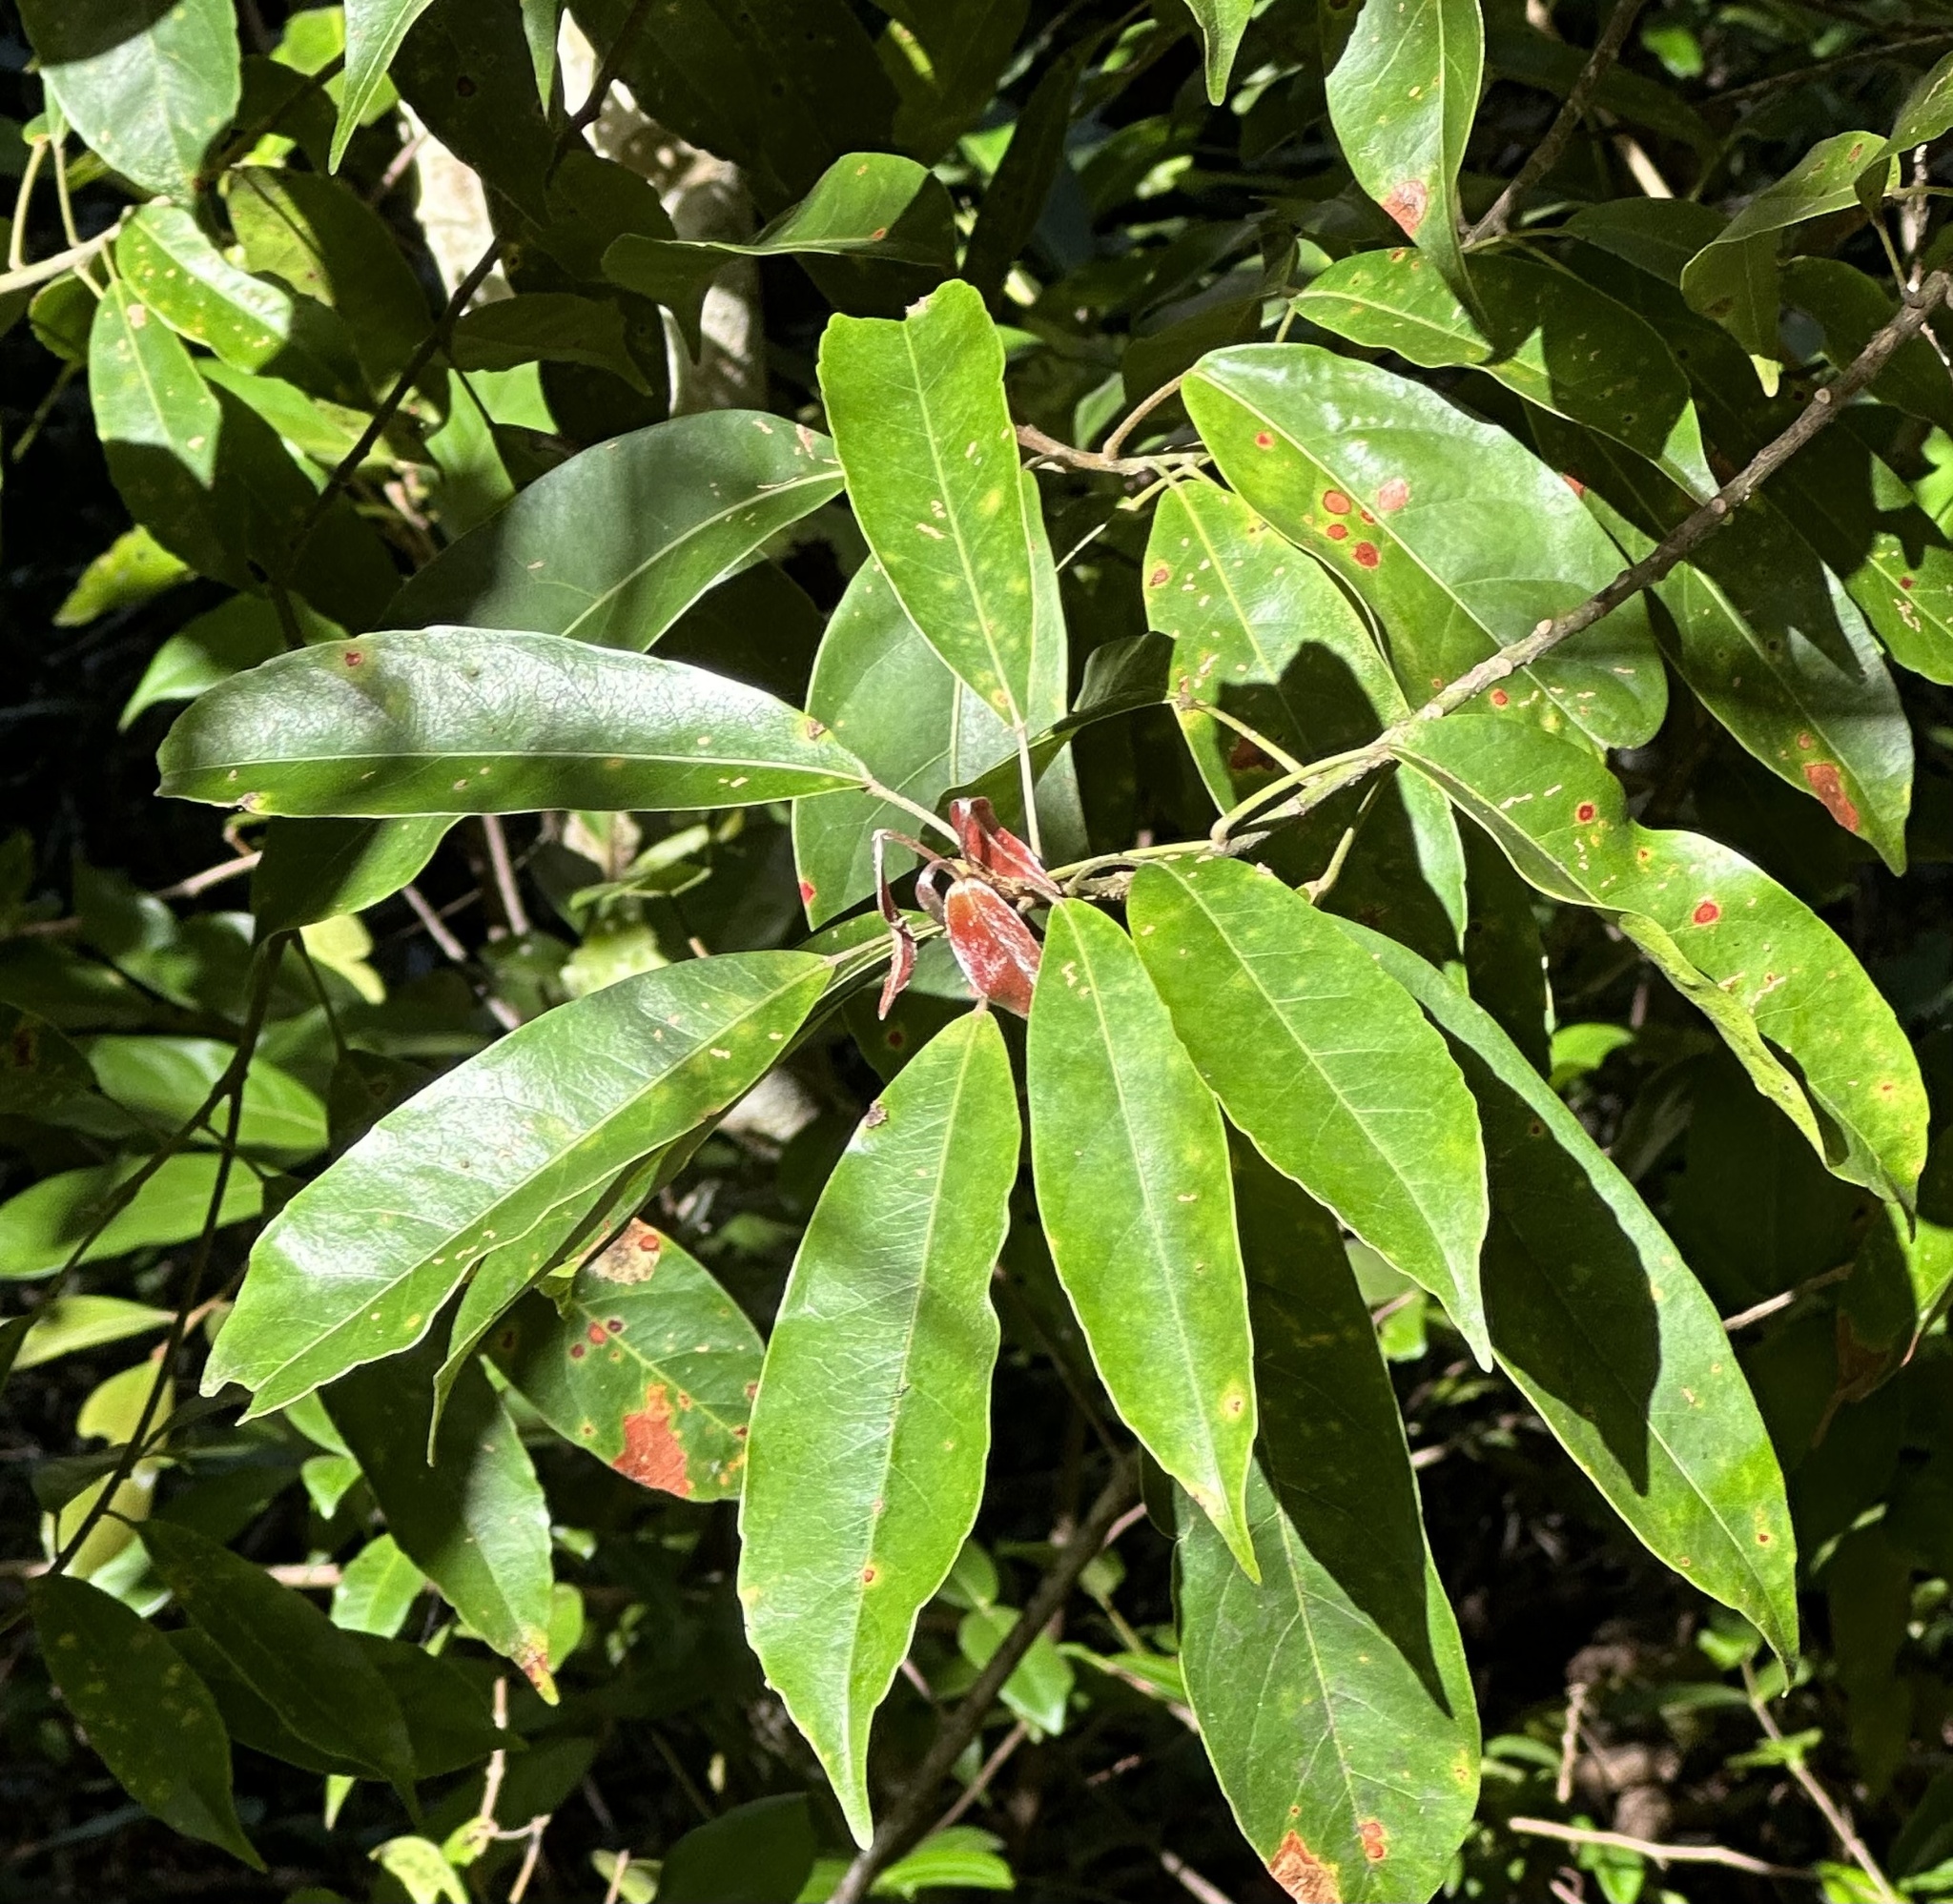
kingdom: Plantae
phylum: Tracheophyta
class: Magnoliopsida
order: Oxalidales
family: Elaeocarpaceae
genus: Elaeocarpus
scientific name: Elaeocarpus eumundi
